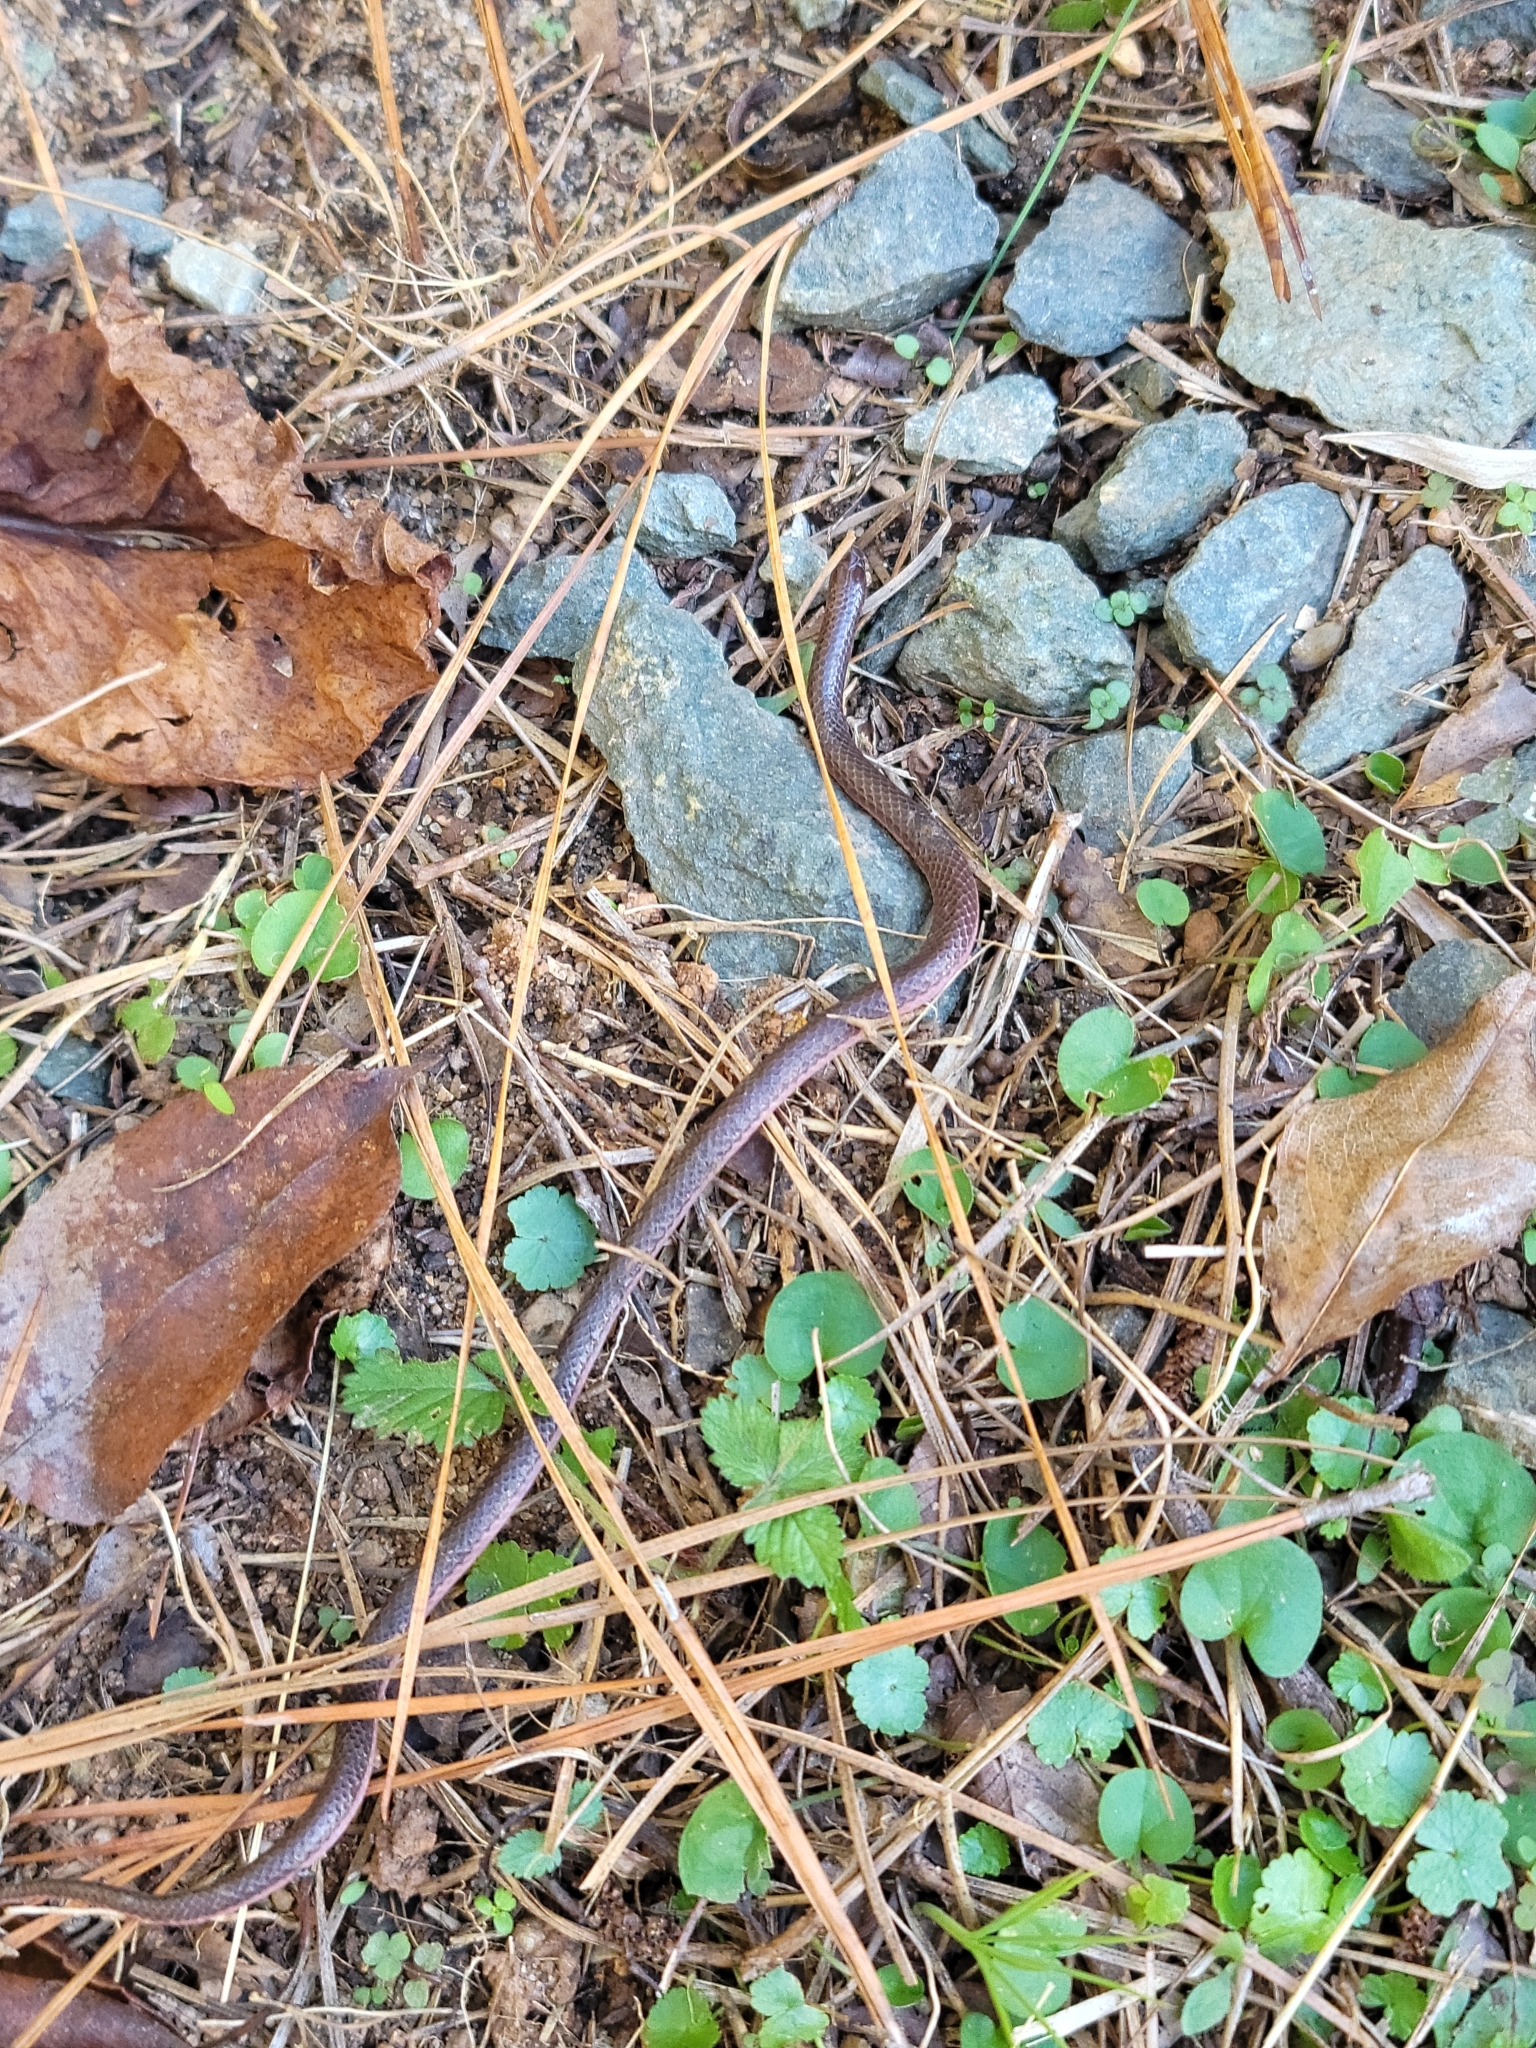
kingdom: Animalia
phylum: Chordata
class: Squamata
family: Colubridae
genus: Carphophis
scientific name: Carphophis amoenus
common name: Eastern worm snake
